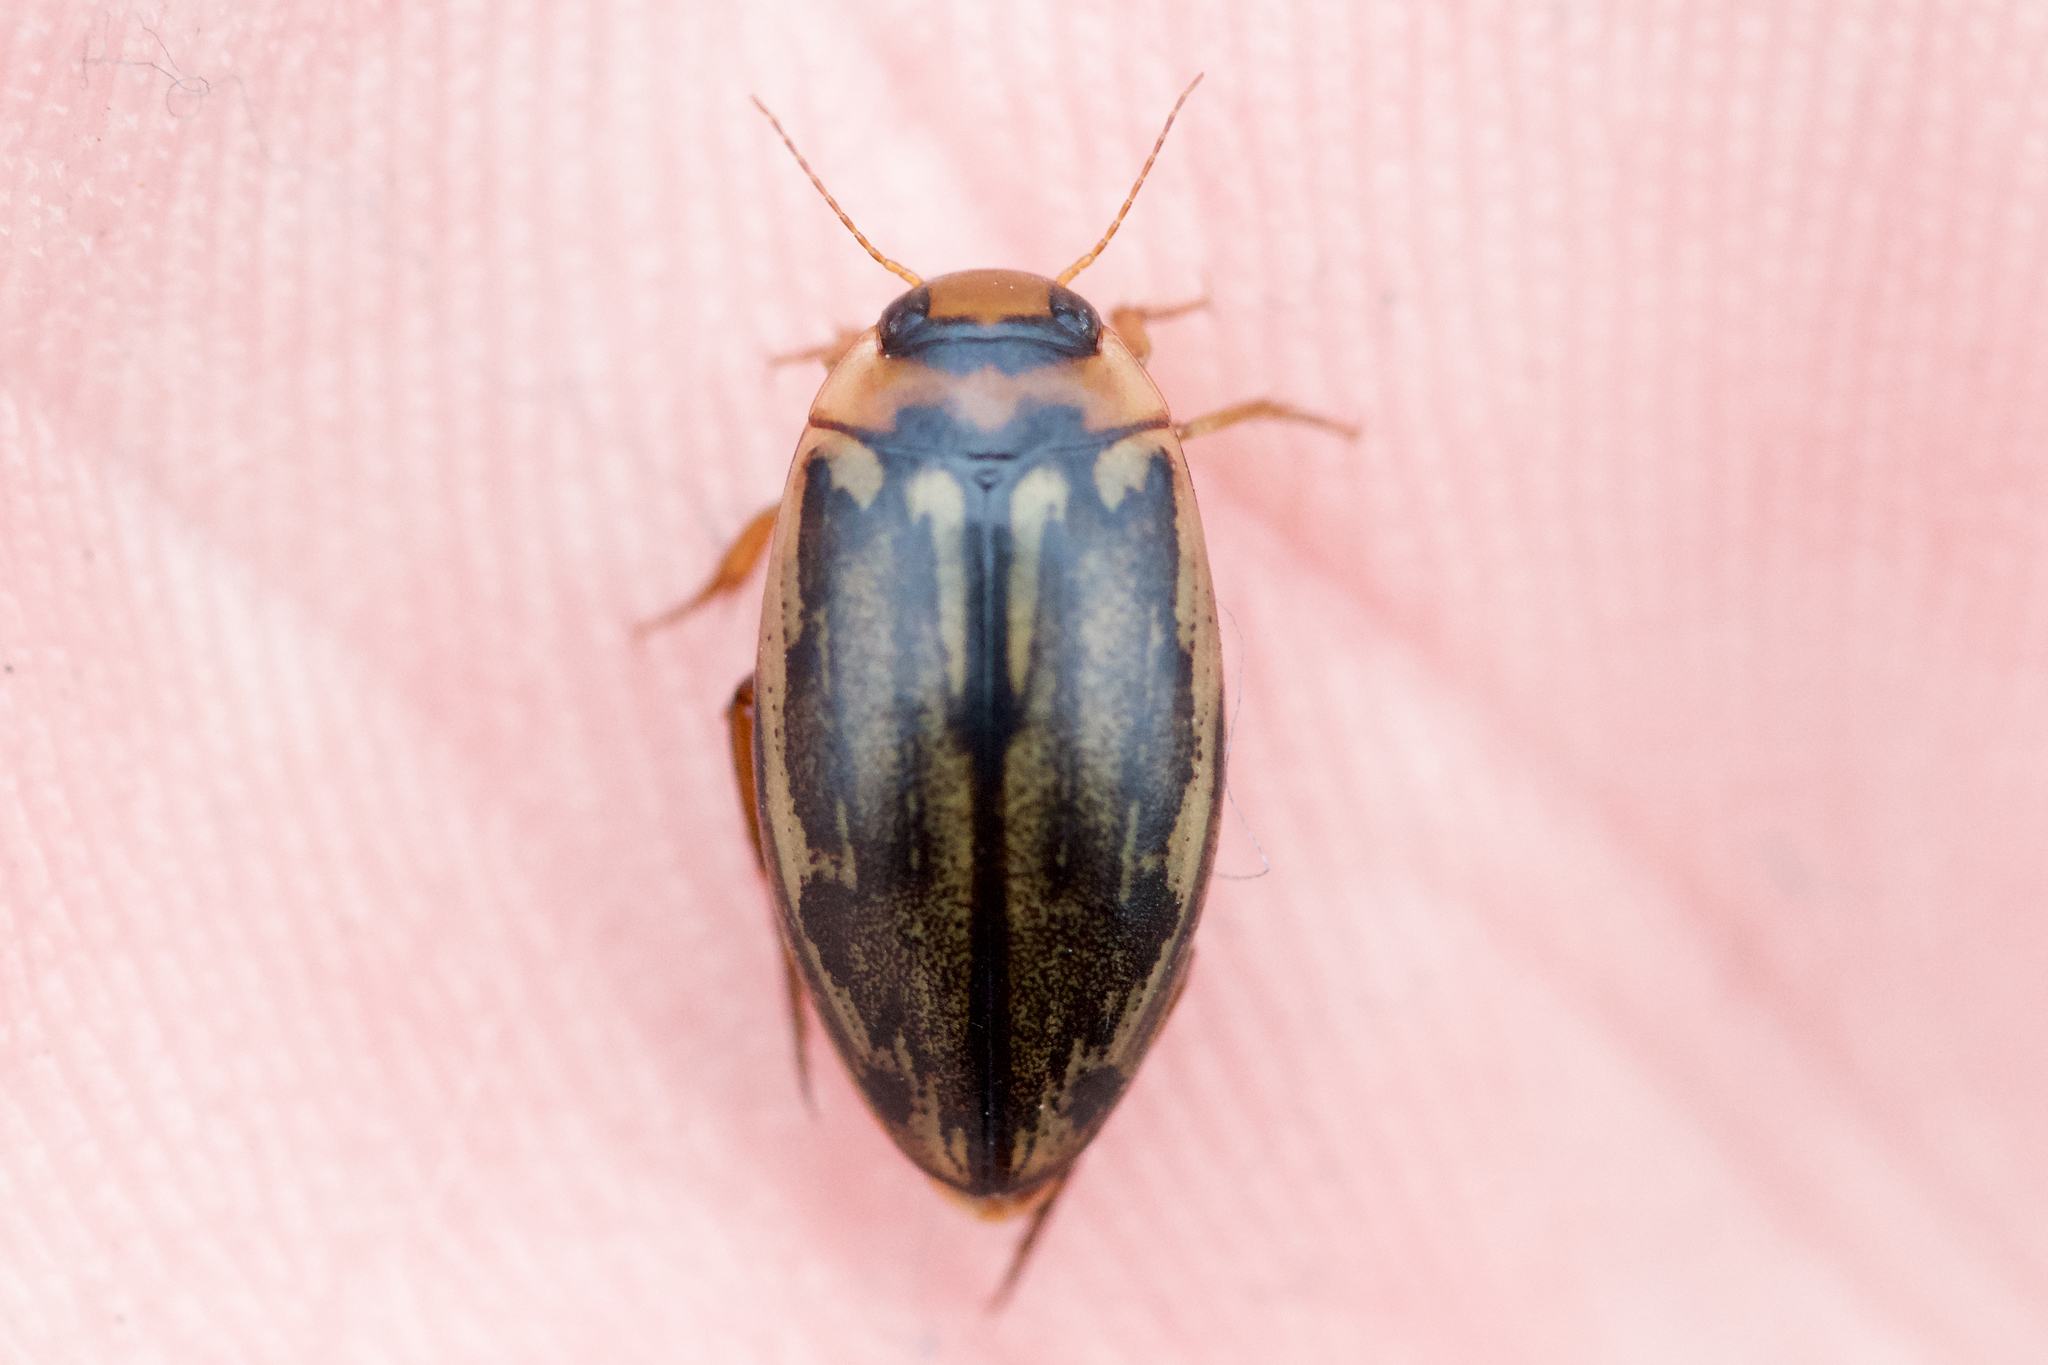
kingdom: Animalia
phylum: Arthropoda
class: Insecta
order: Coleoptera
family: Dytiscidae
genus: Coptotomus
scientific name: Coptotomus longulus
